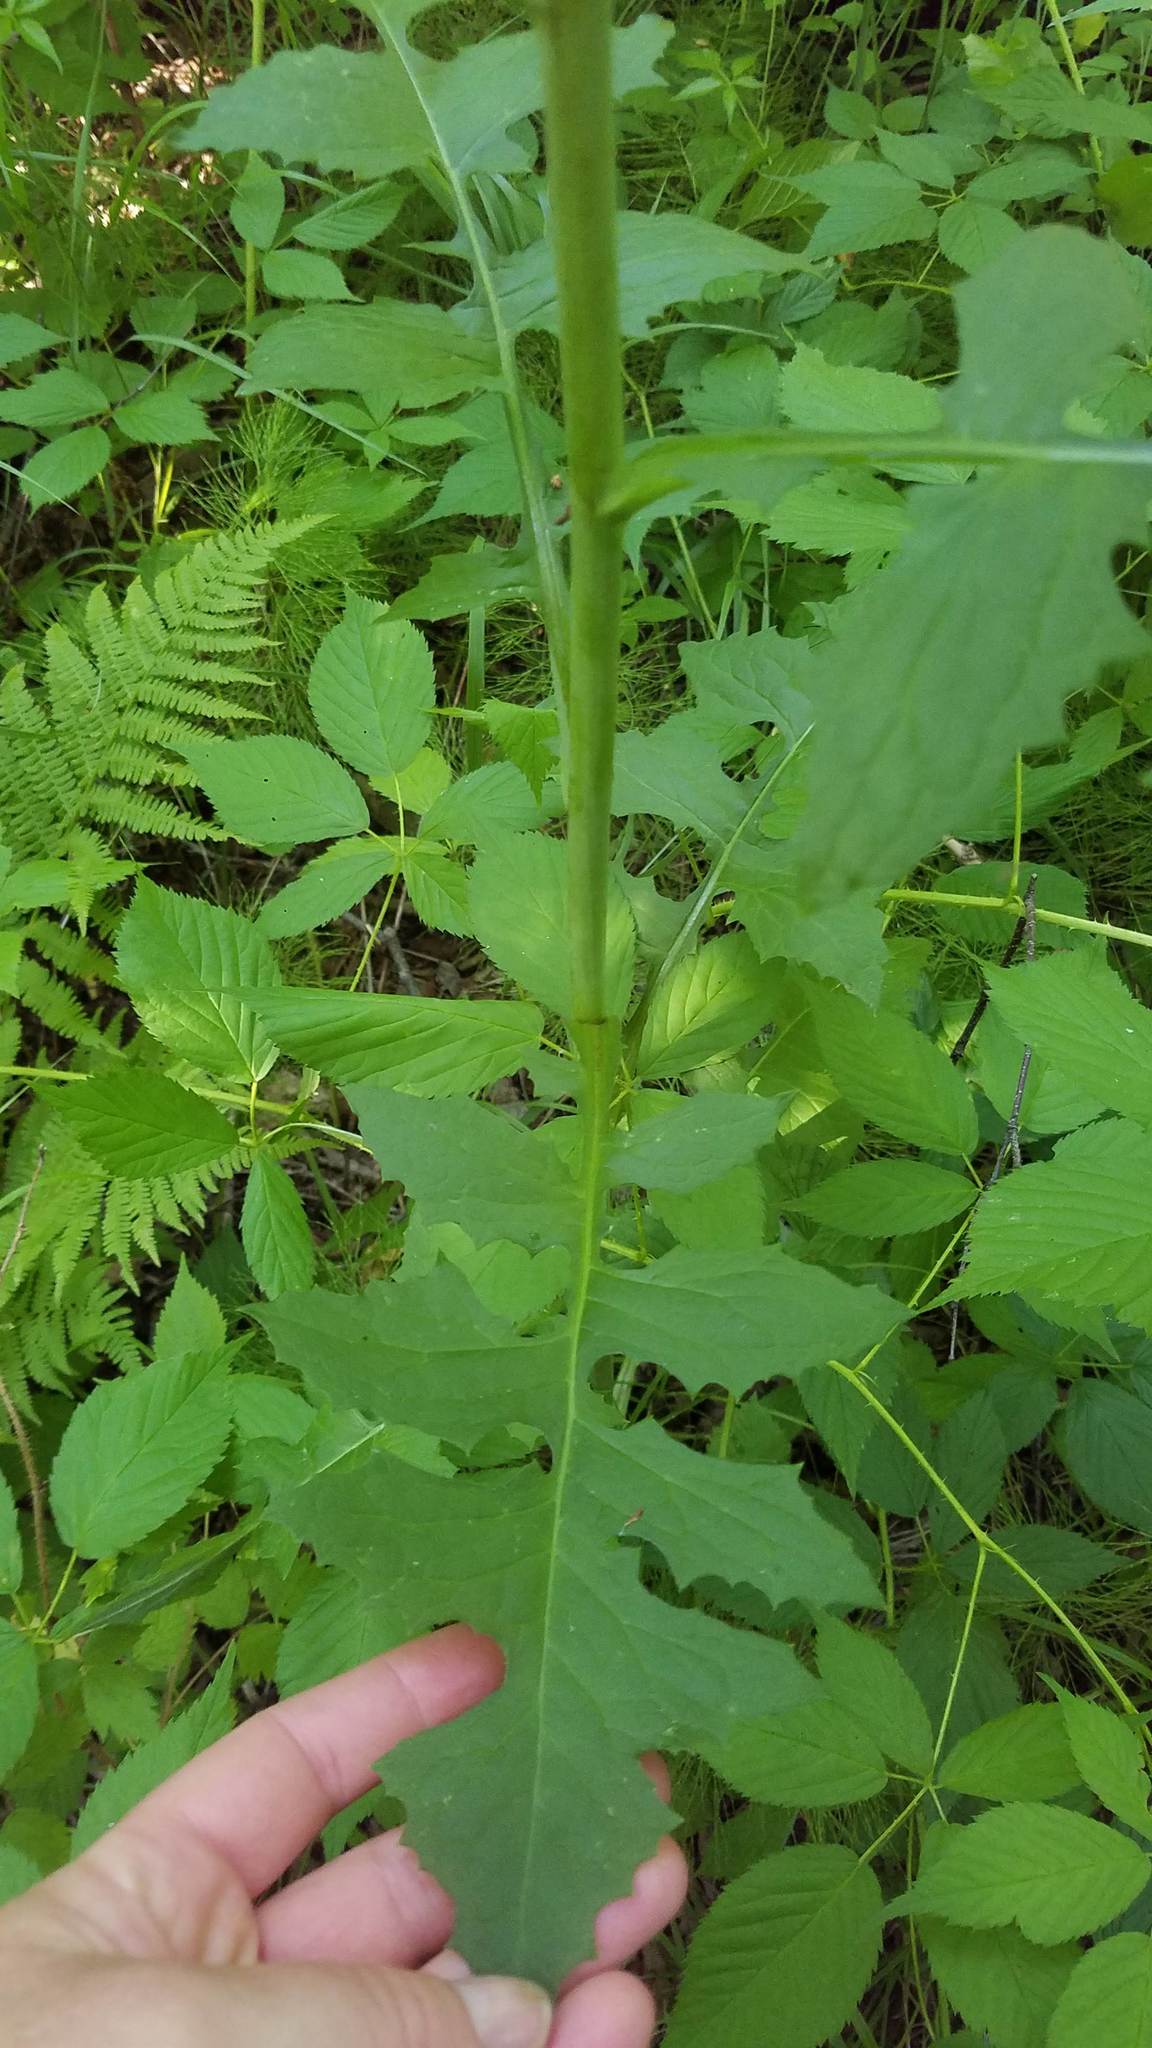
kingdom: Plantae
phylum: Tracheophyta
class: Magnoliopsida
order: Asterales
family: Asteraceae
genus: Lactuca
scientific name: Lactuca biennis
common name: Blue wood lettuce
